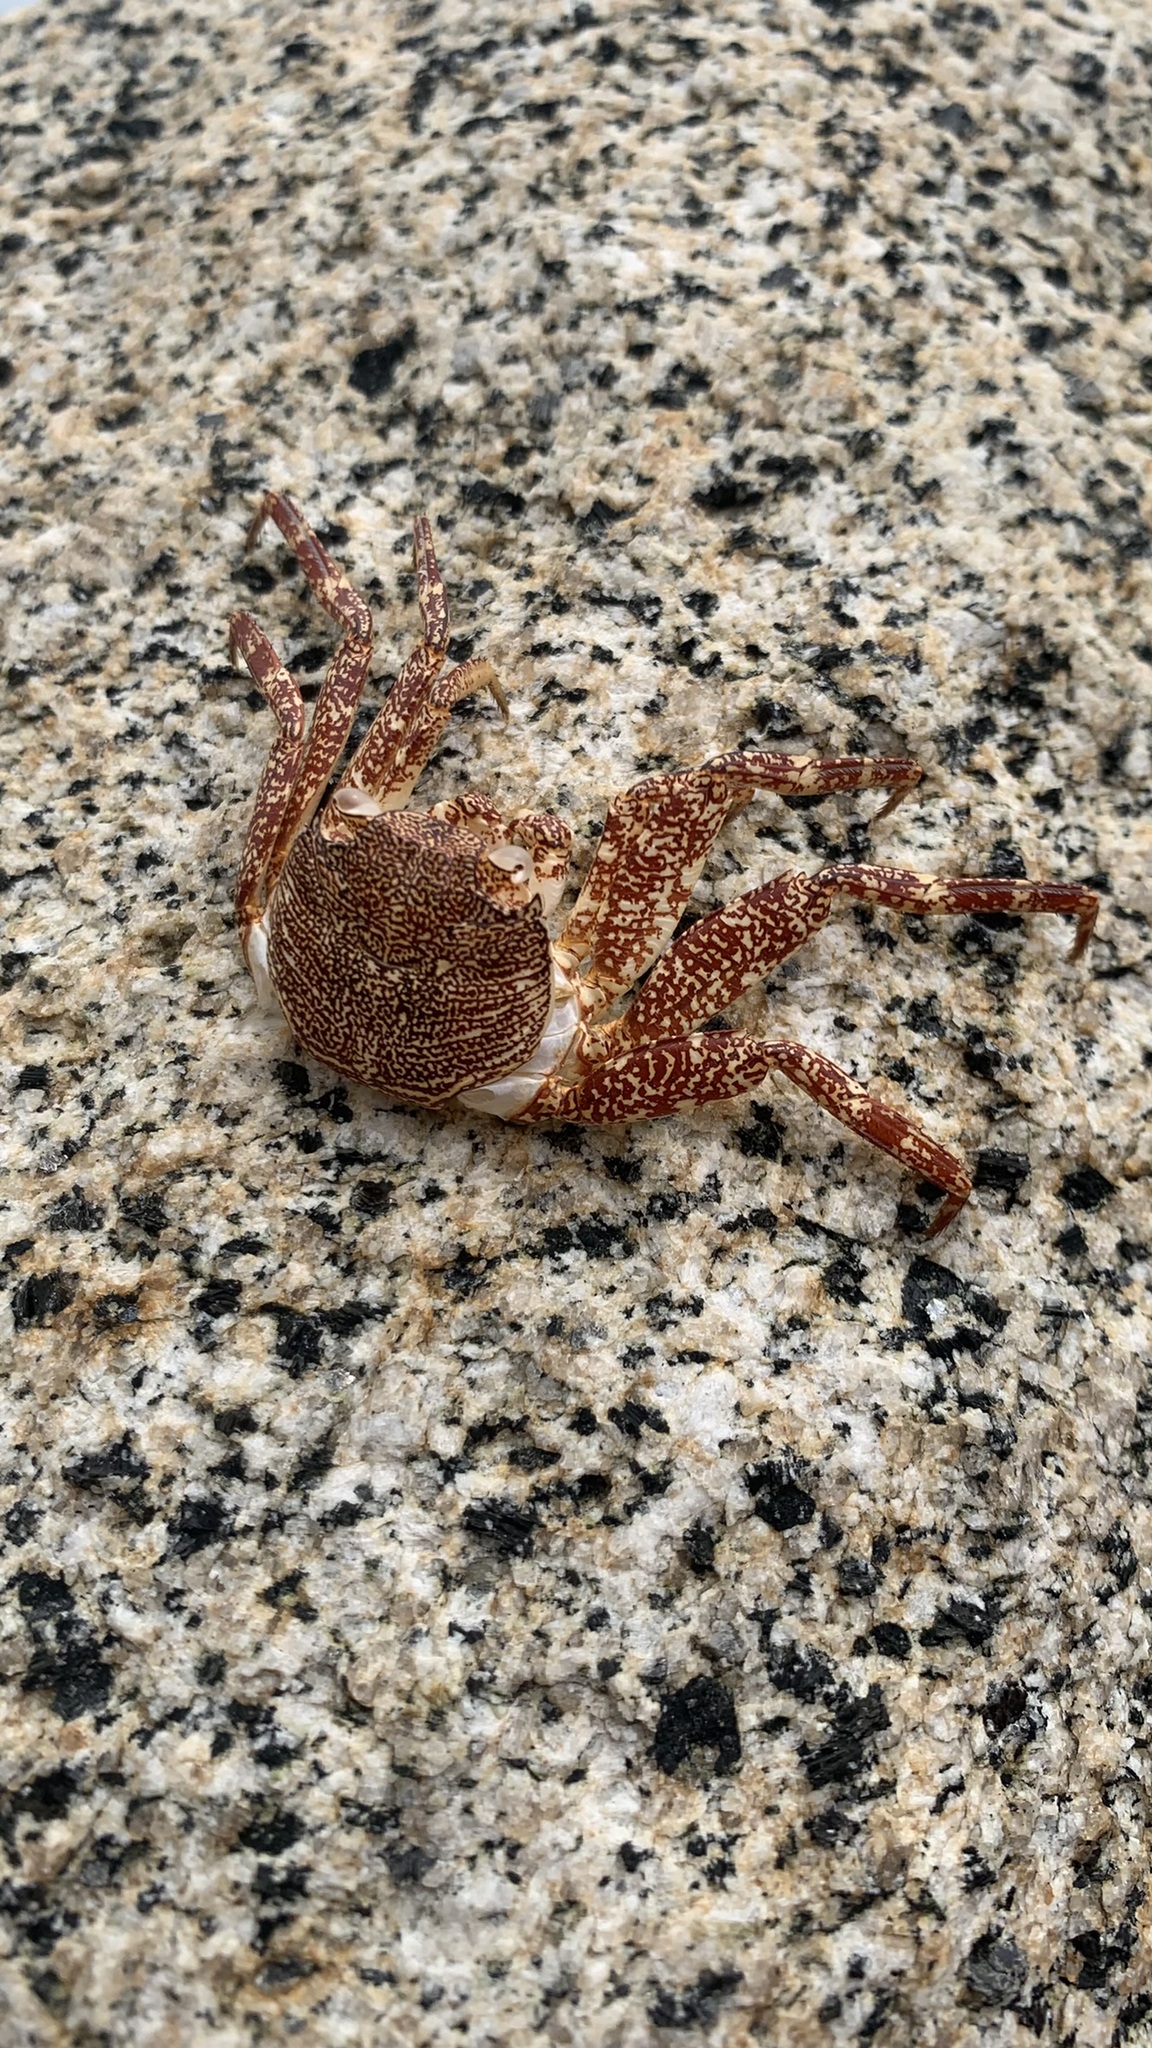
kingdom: Animalia
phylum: Arthropoda
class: Malacostraca
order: Decapoda
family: Grapsidae
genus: Grapsus
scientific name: Grapsus grapsus
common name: Sally lightfoot
